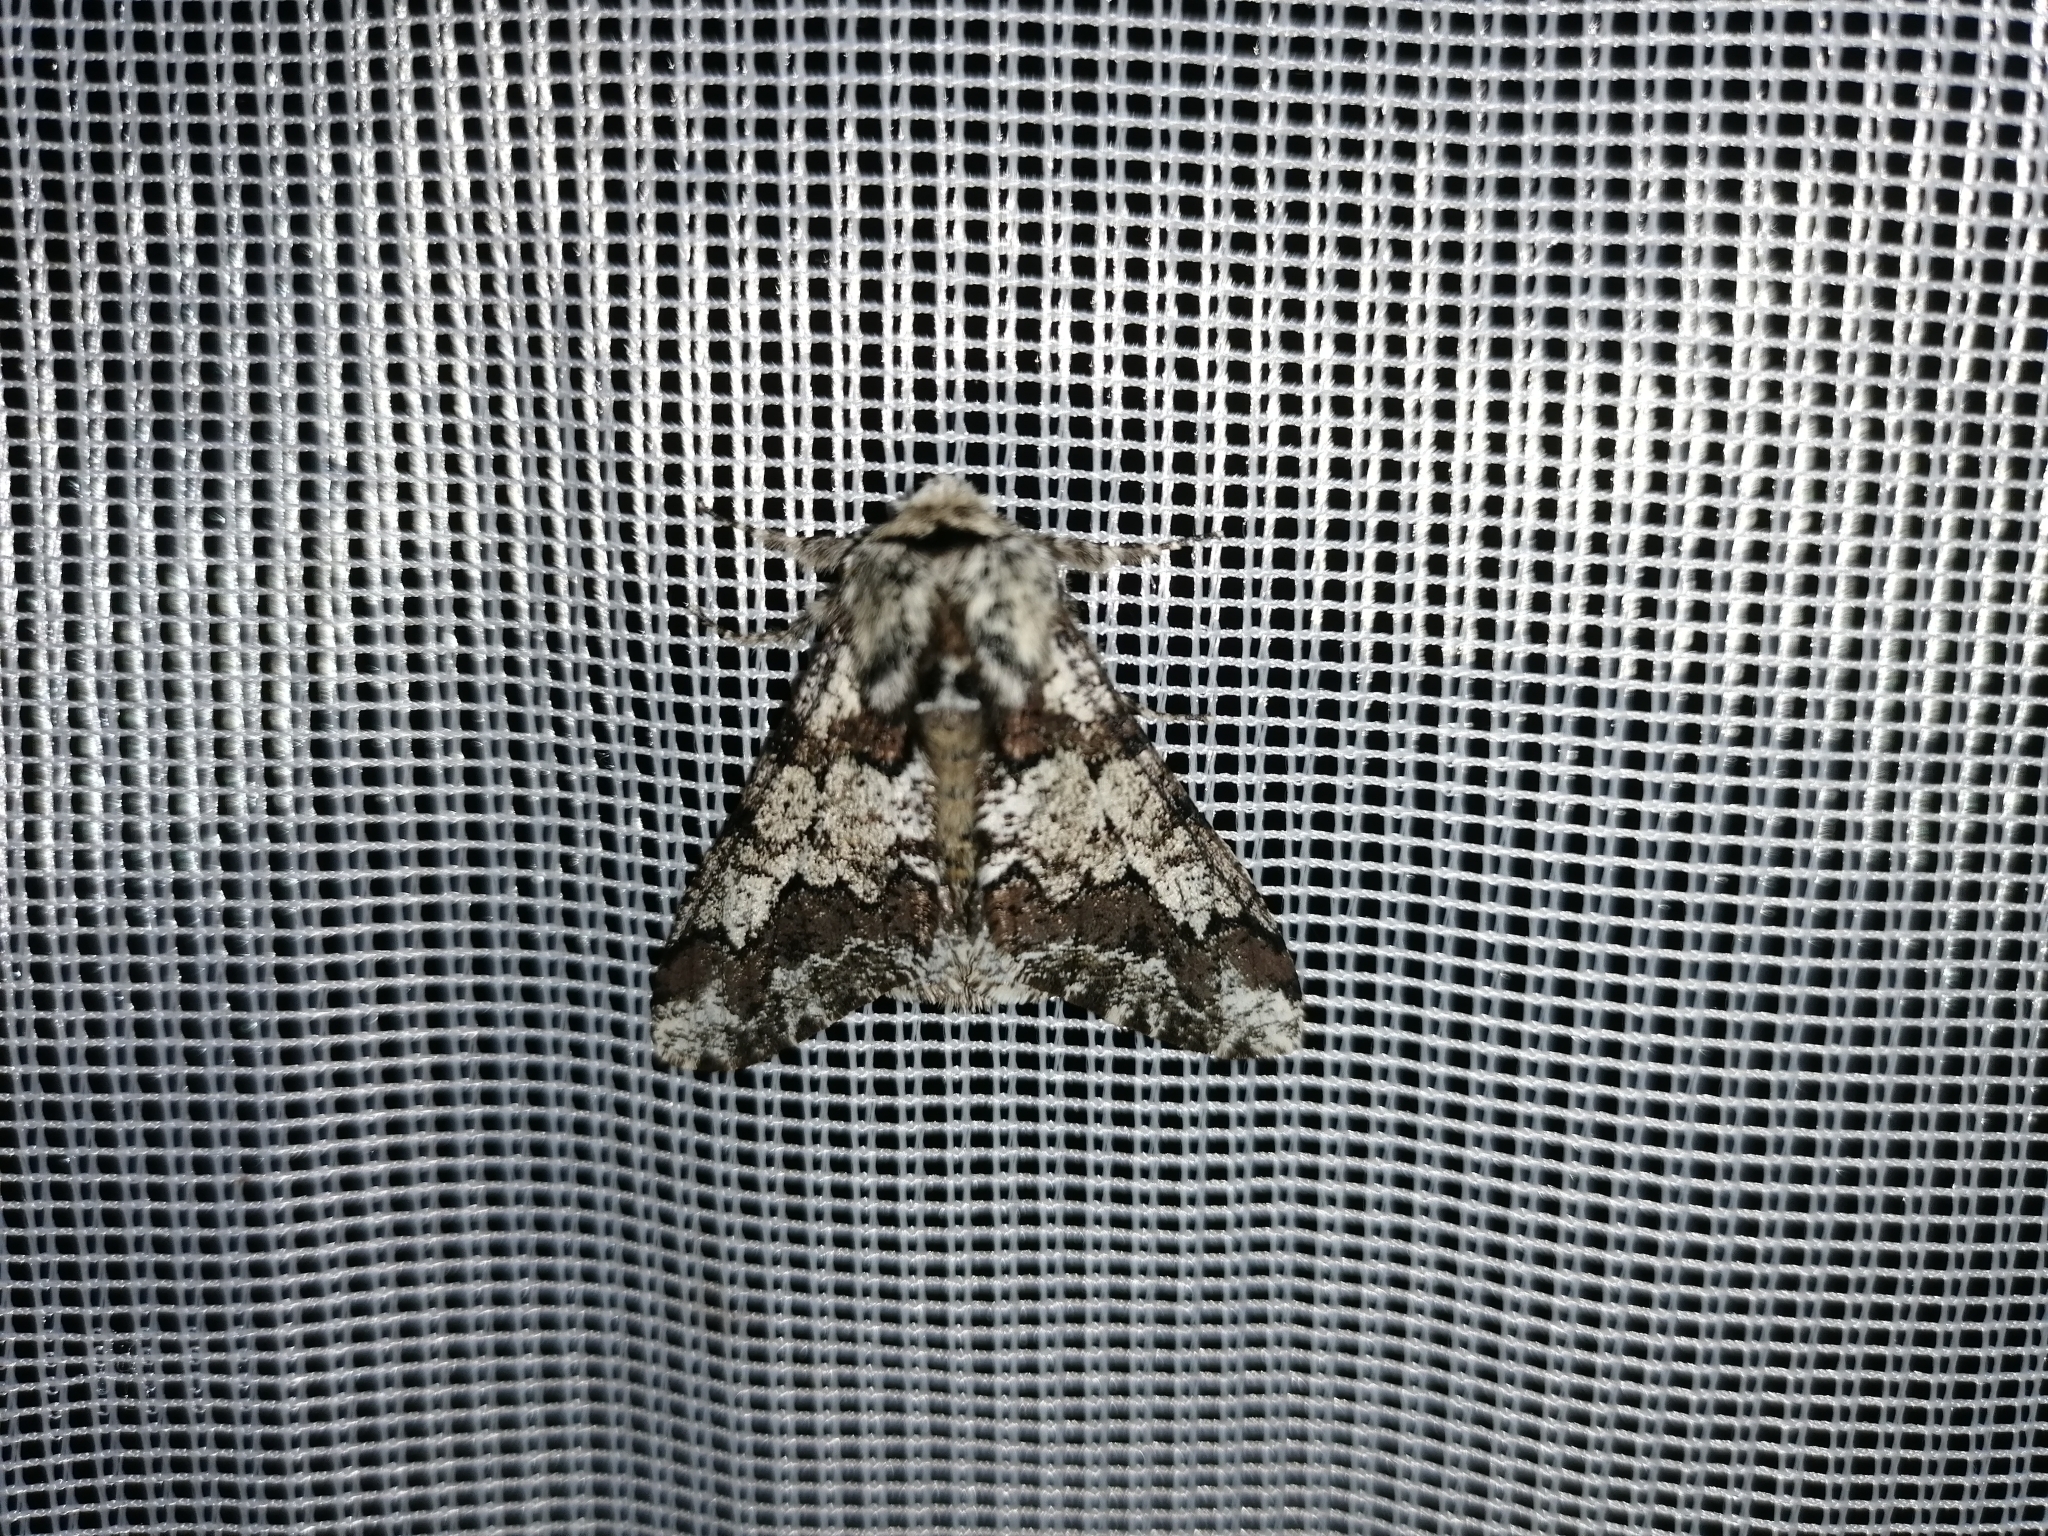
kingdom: Animalia
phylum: Arthropoda
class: Insecta
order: Lepidoptera
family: Geometridae
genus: Biston
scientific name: Biston strataria
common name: Oak beauty
